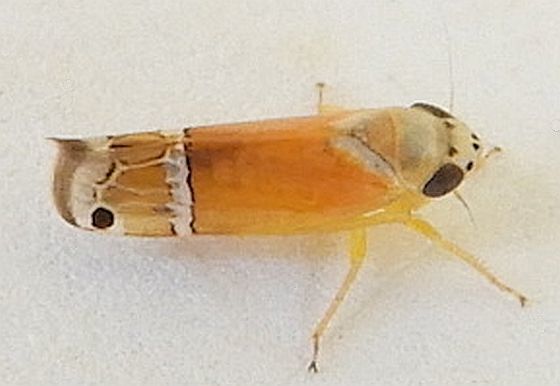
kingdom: Animalia
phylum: Arthropoda
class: Insecta
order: Hemiptera
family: Cicadellidae
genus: Sanctanus
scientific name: Sanctanus orbiculatus
